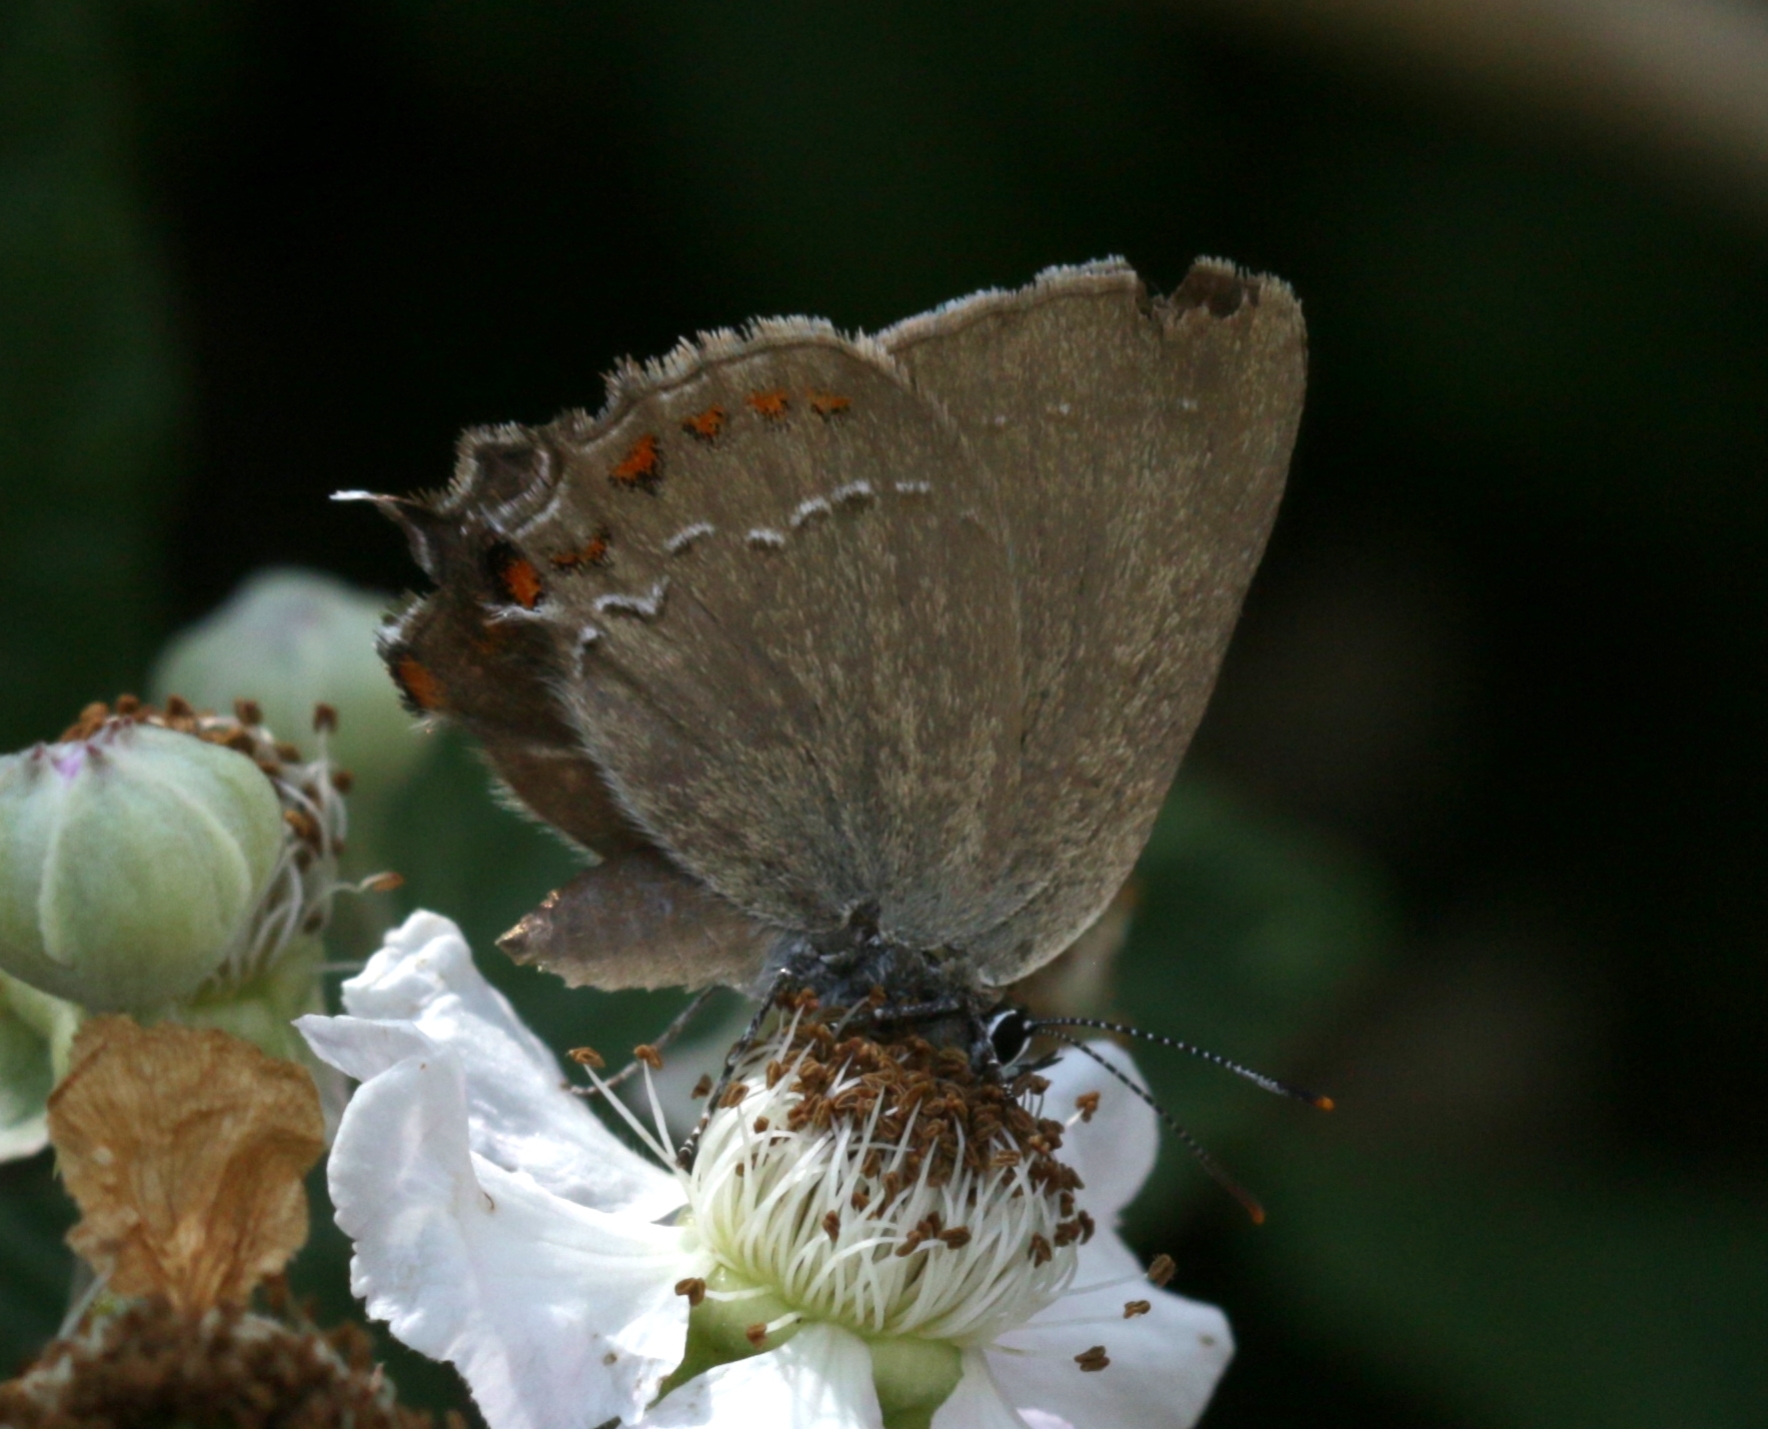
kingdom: Animalia
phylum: Arthropoda
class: Insecta
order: Lepidoptera
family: Lycaenidae
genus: Fixsenia
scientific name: Fixsenia esculi
